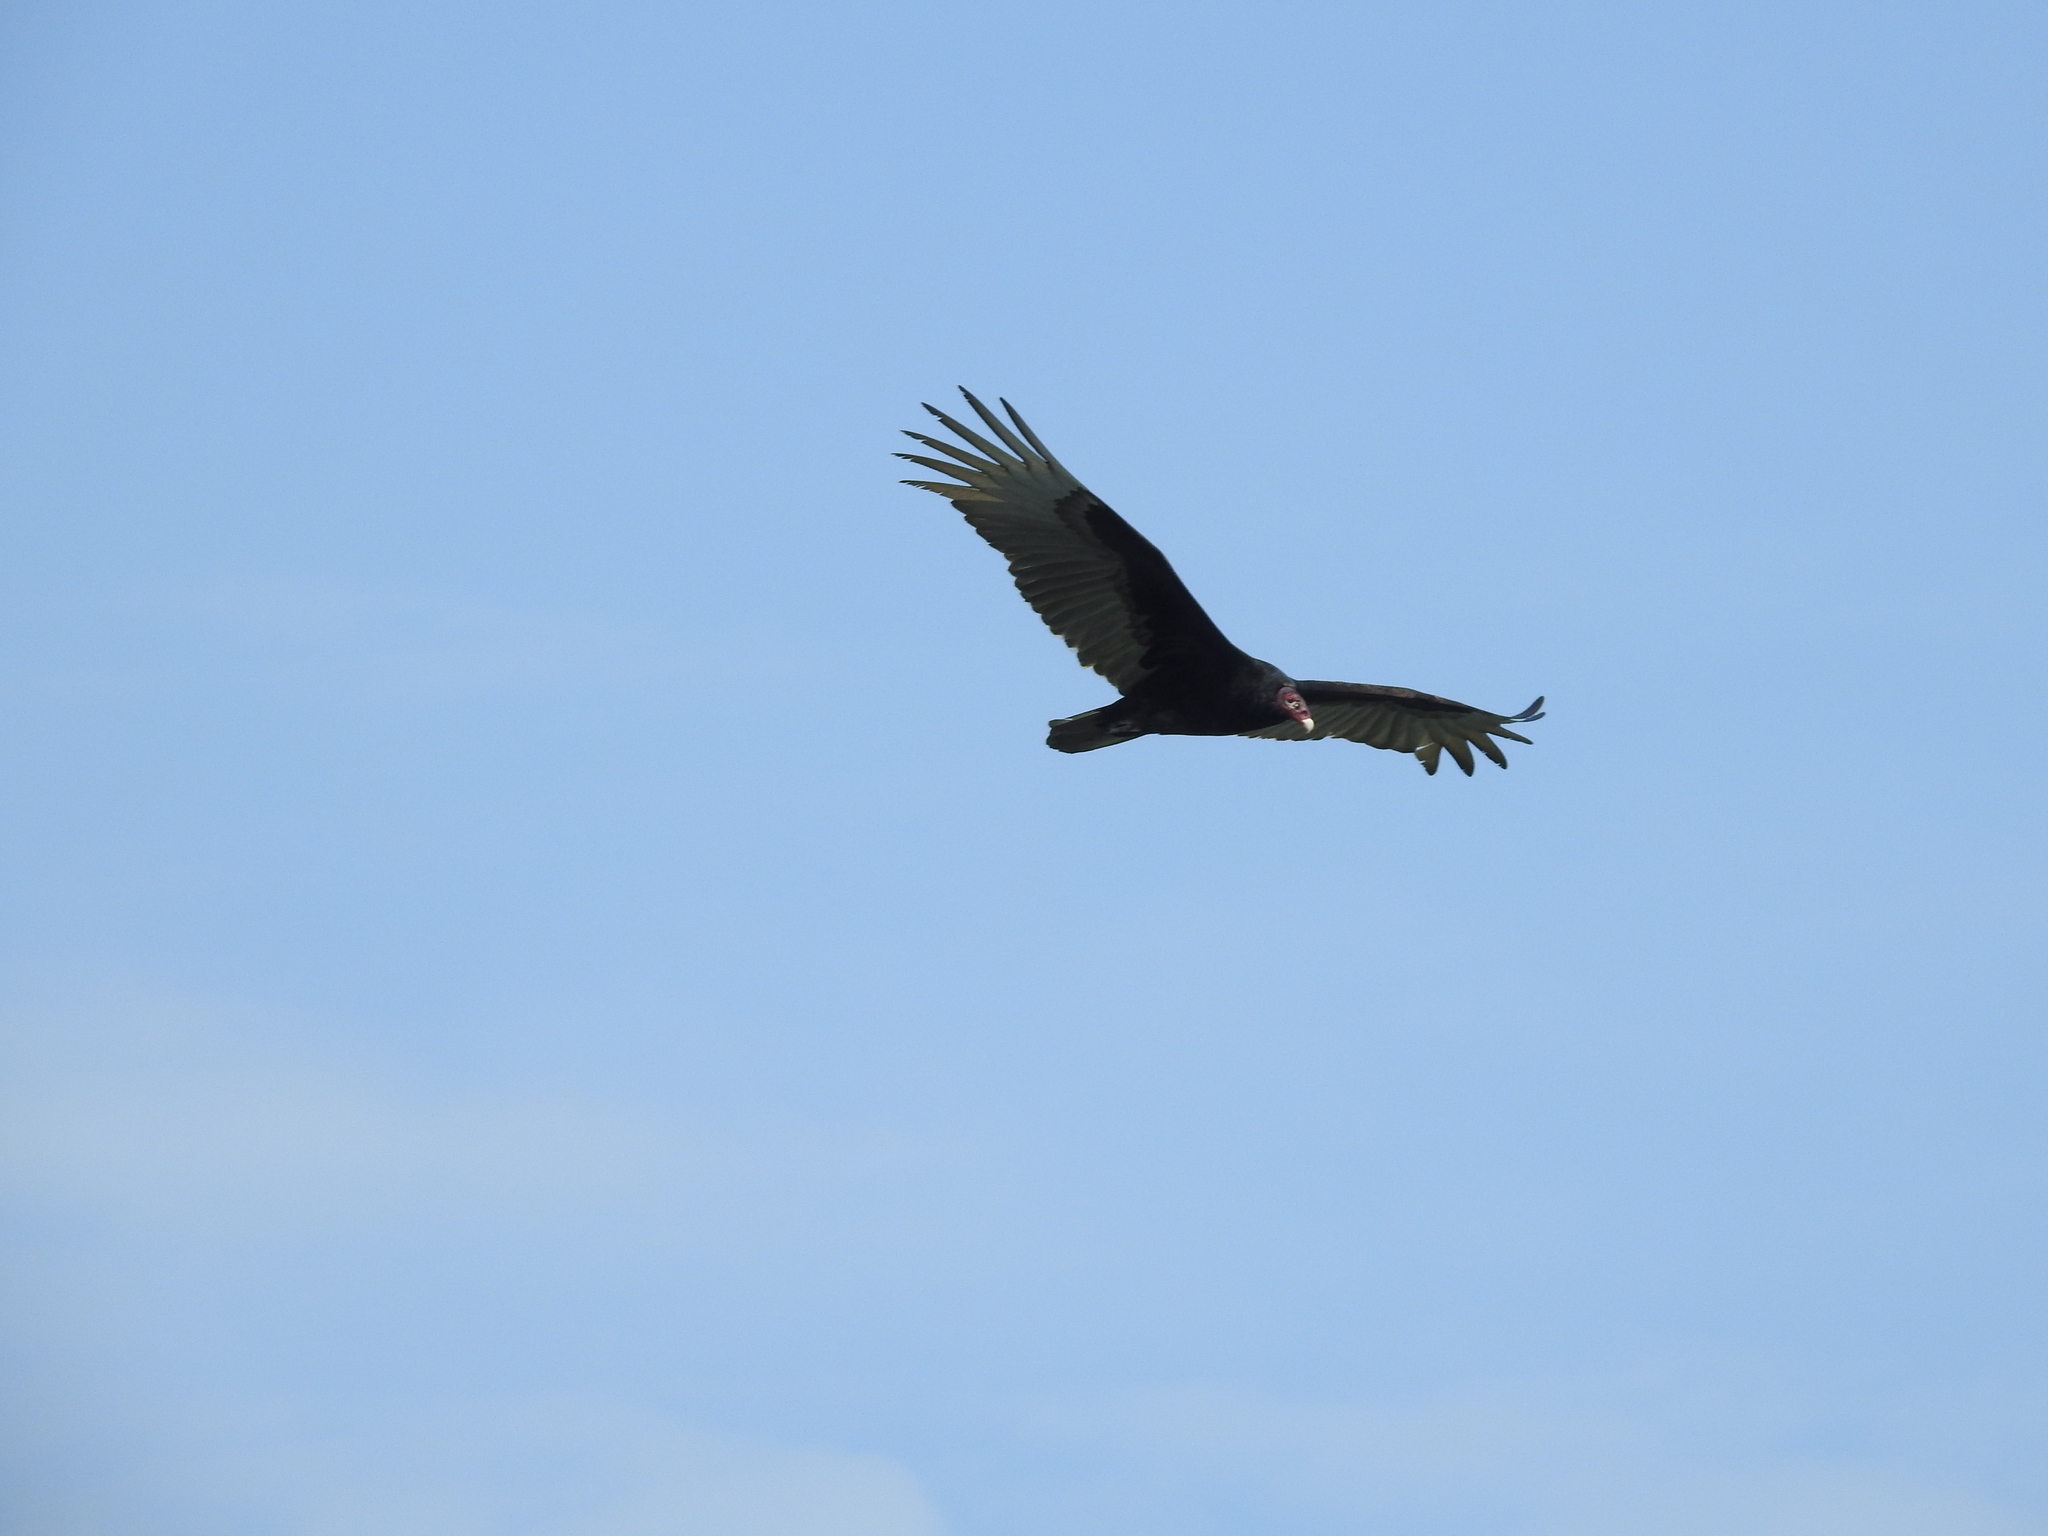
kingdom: Animalia
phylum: Chordata
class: Aves
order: Accipitriformes
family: Cathartidae
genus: Cathartes
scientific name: Cathartes aura
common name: Turkey vulture
